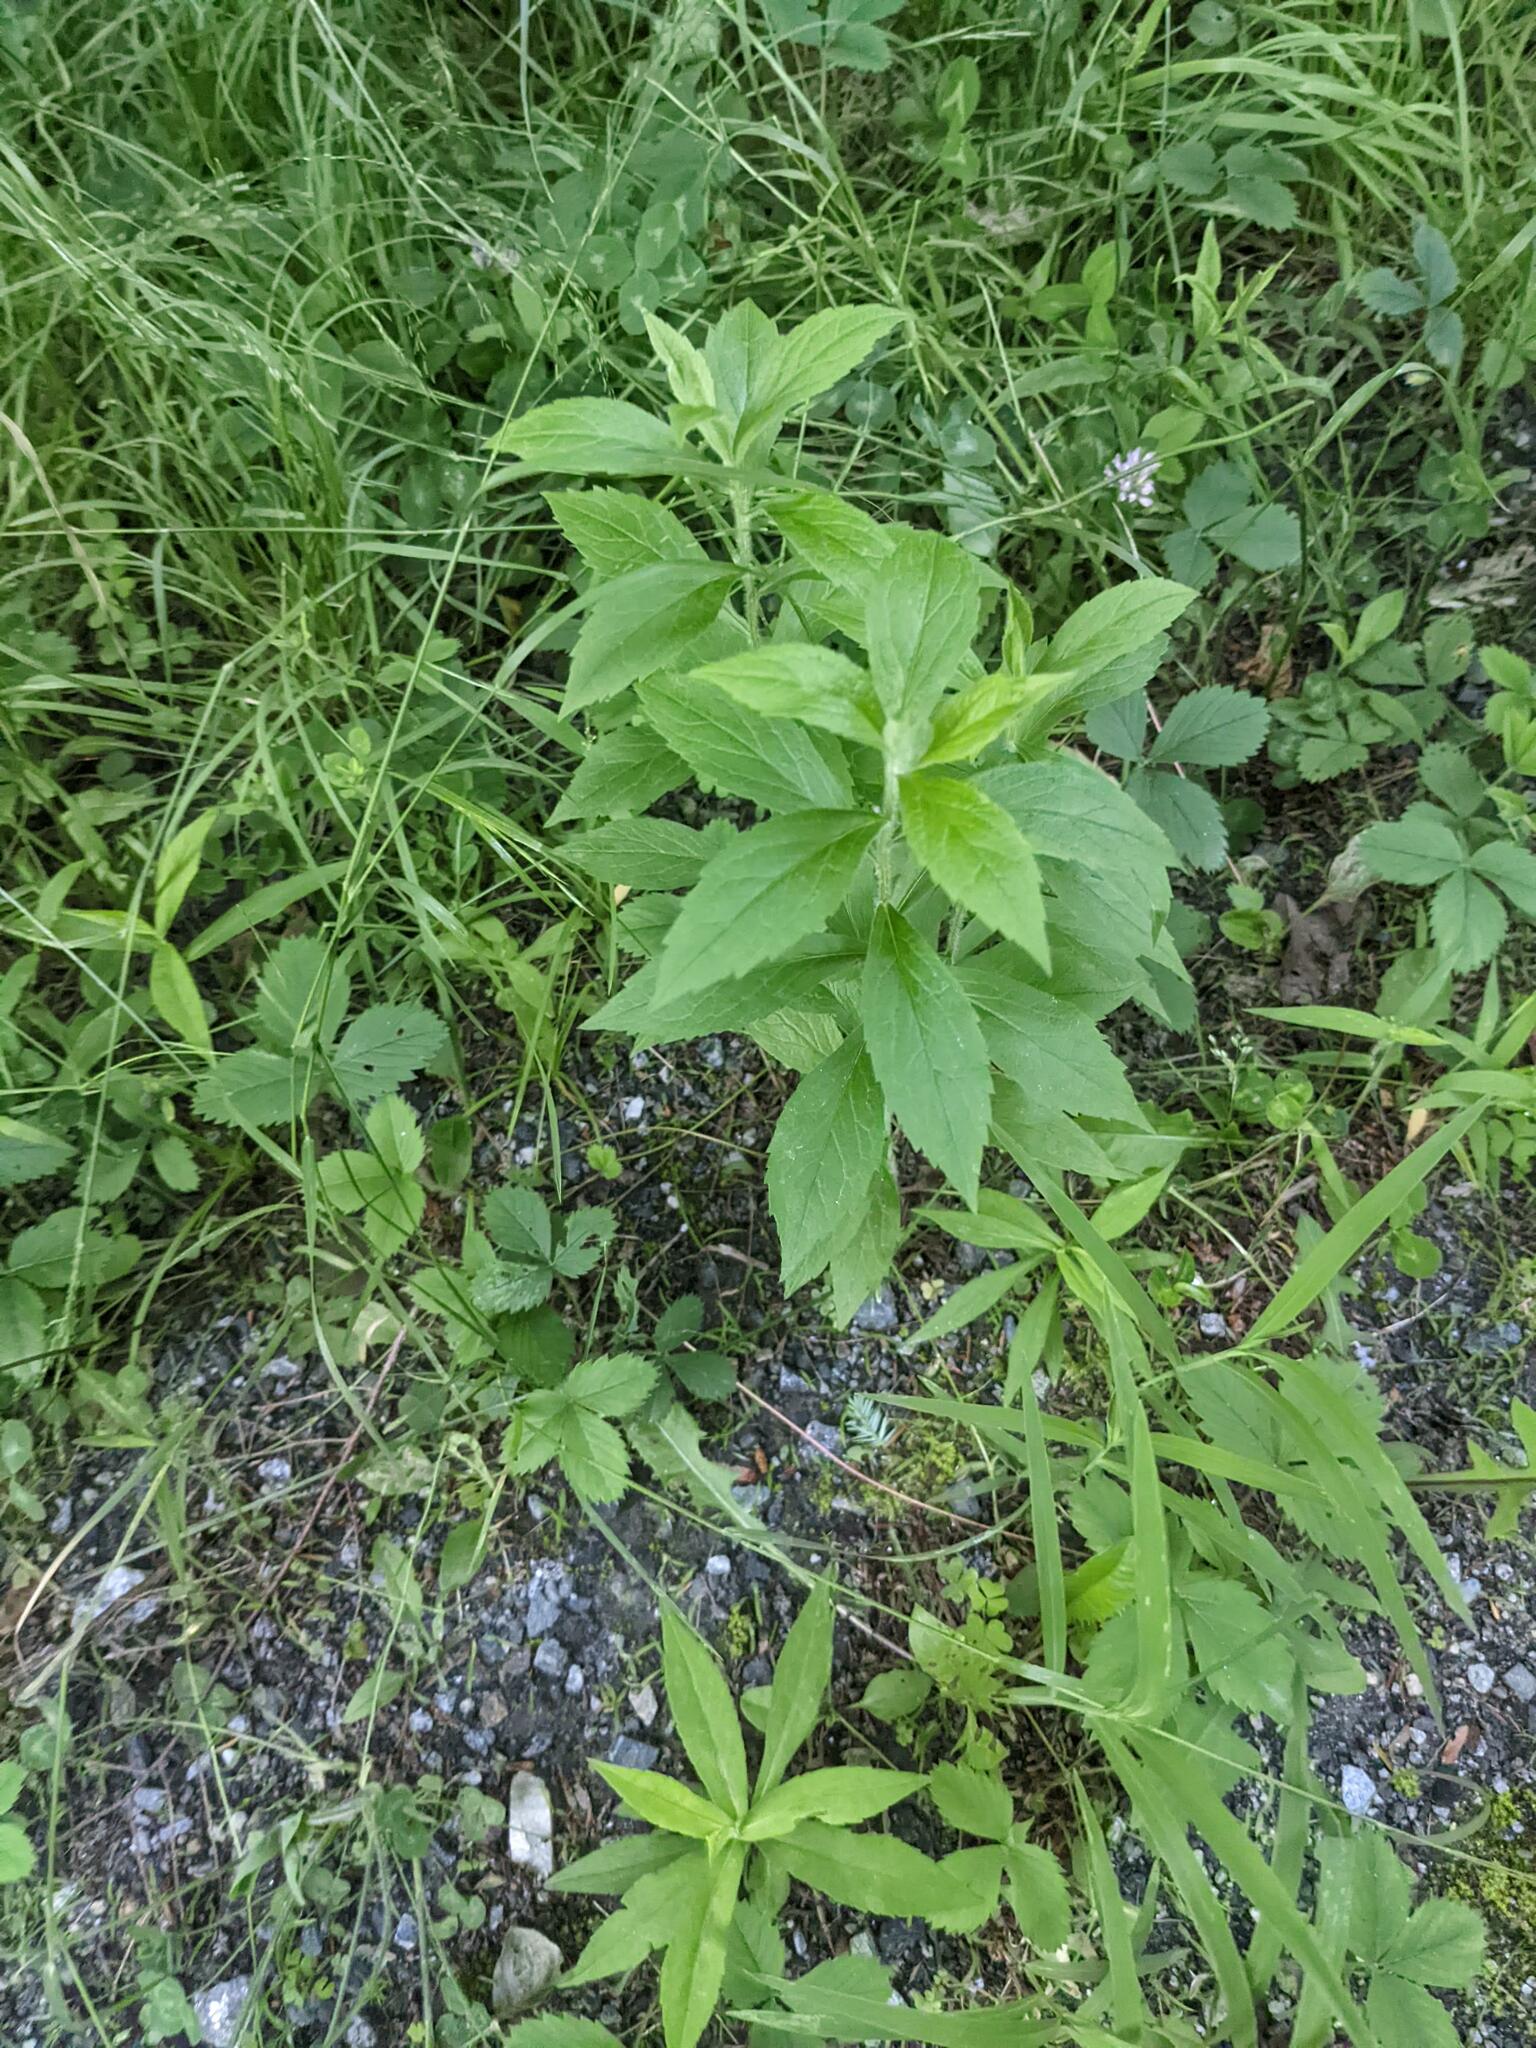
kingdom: Plantae
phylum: Tracheophyta
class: Magnoliopsida
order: Asterales
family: Asteraceae
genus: Solidago
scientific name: Solidago rugosa
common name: Rough-stemmed goldenrod
